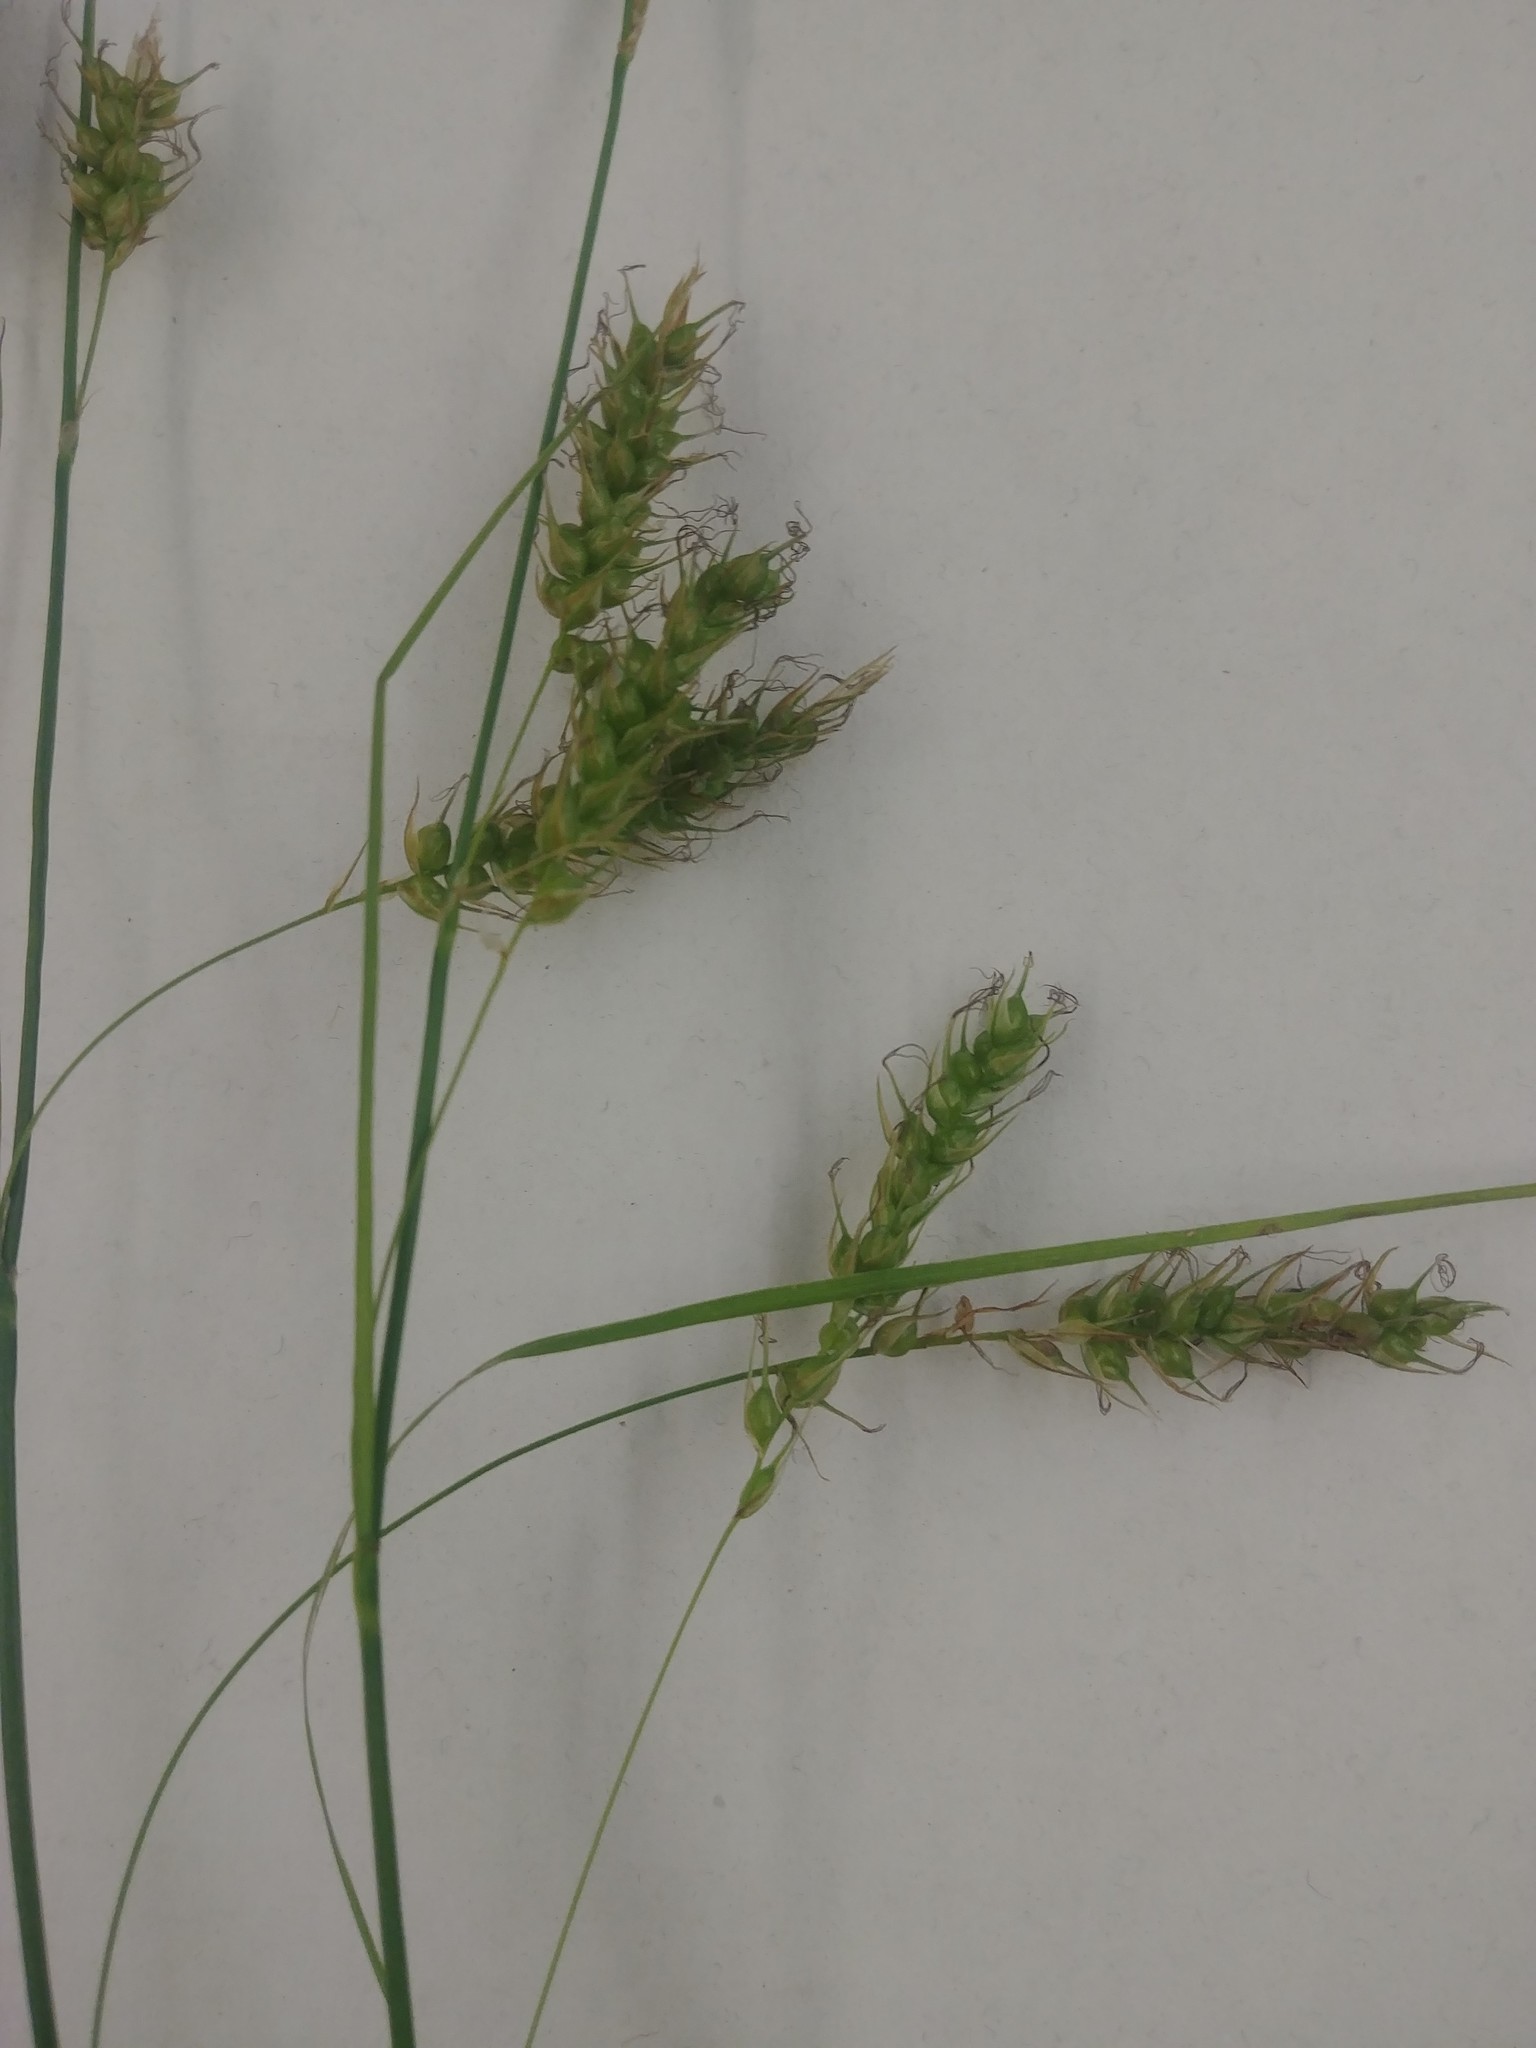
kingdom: Plantae
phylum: Tracheophyta
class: Liliopsida
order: Poales
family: Cyperaceae
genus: Carex
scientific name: Carex sprengelii
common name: Long-beaked sedge
